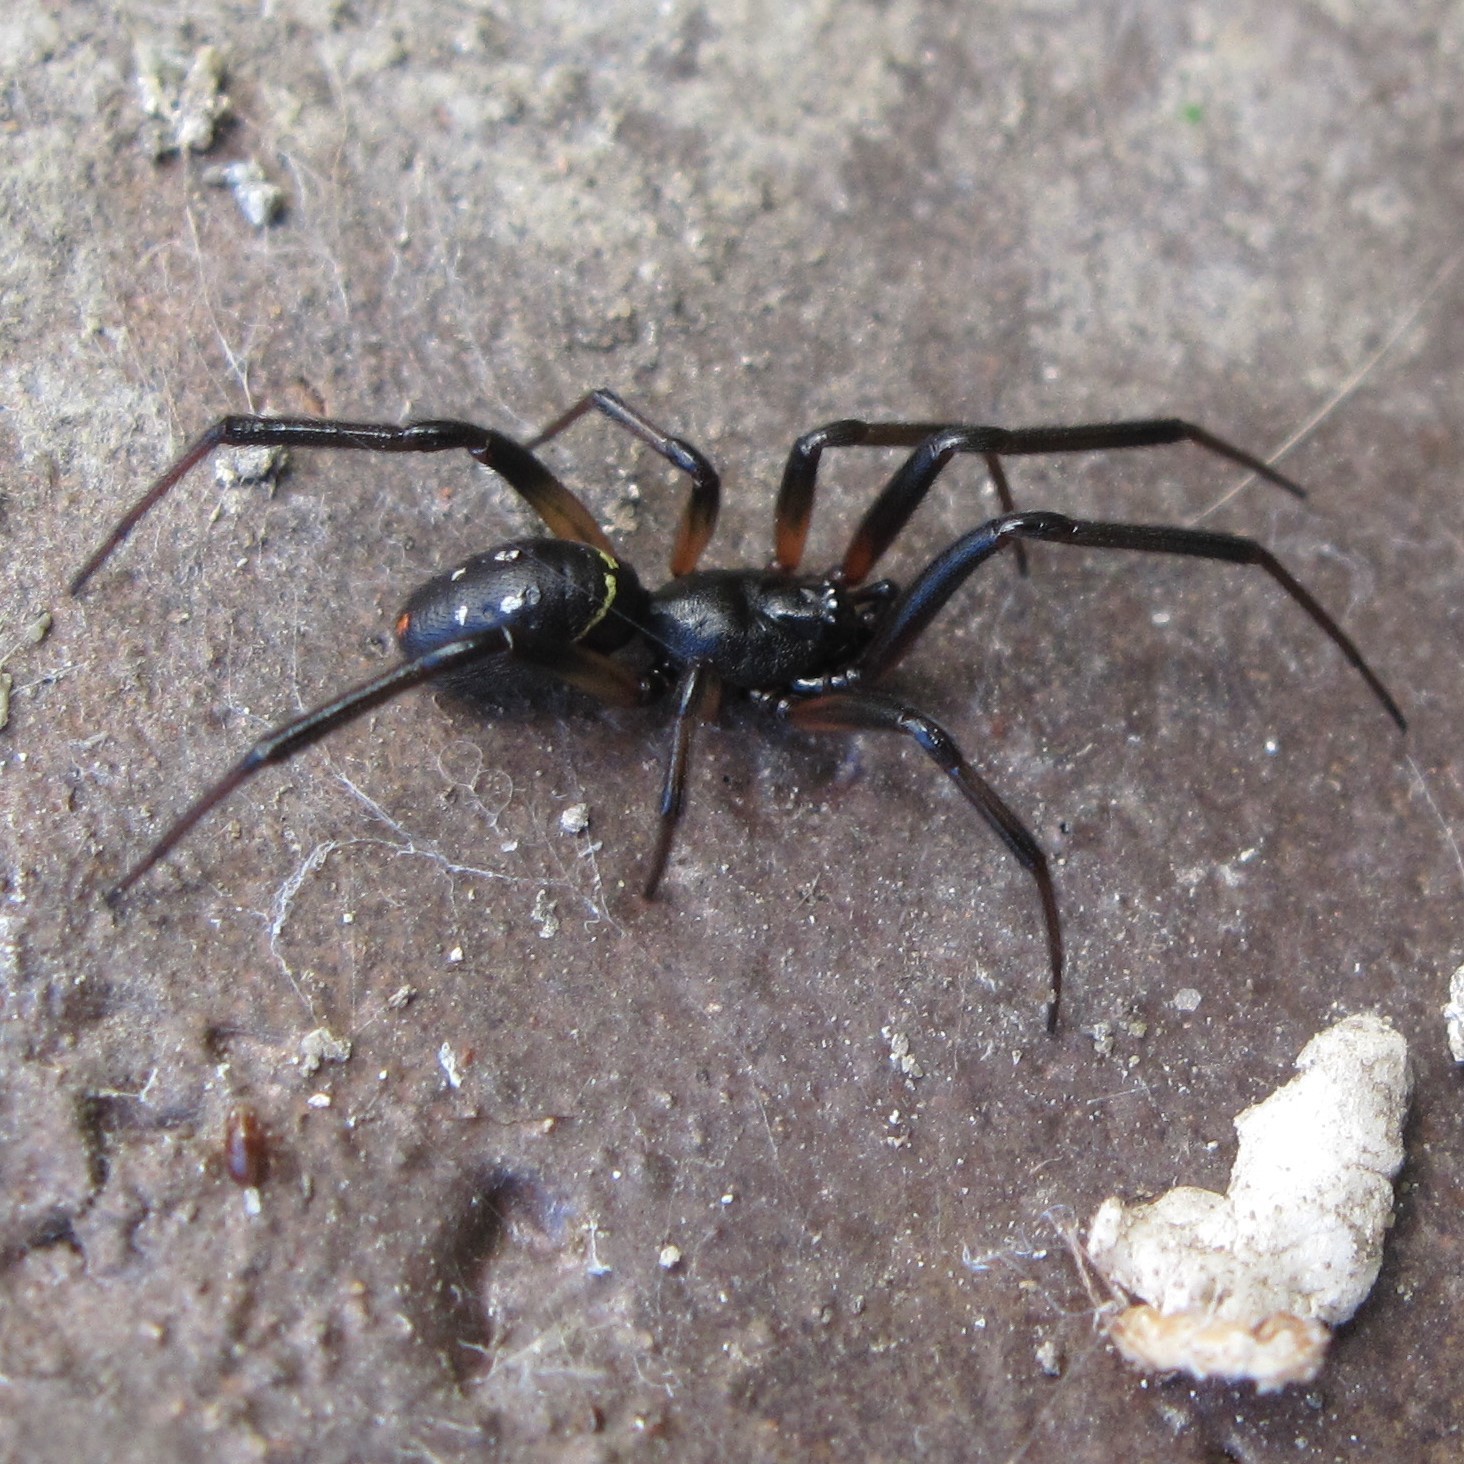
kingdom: Animalia
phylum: Arthropoda
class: Arachnida
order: Araneae
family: Theridiidae
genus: Steatoda
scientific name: Steatoda capensis
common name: Cobweb weaver
